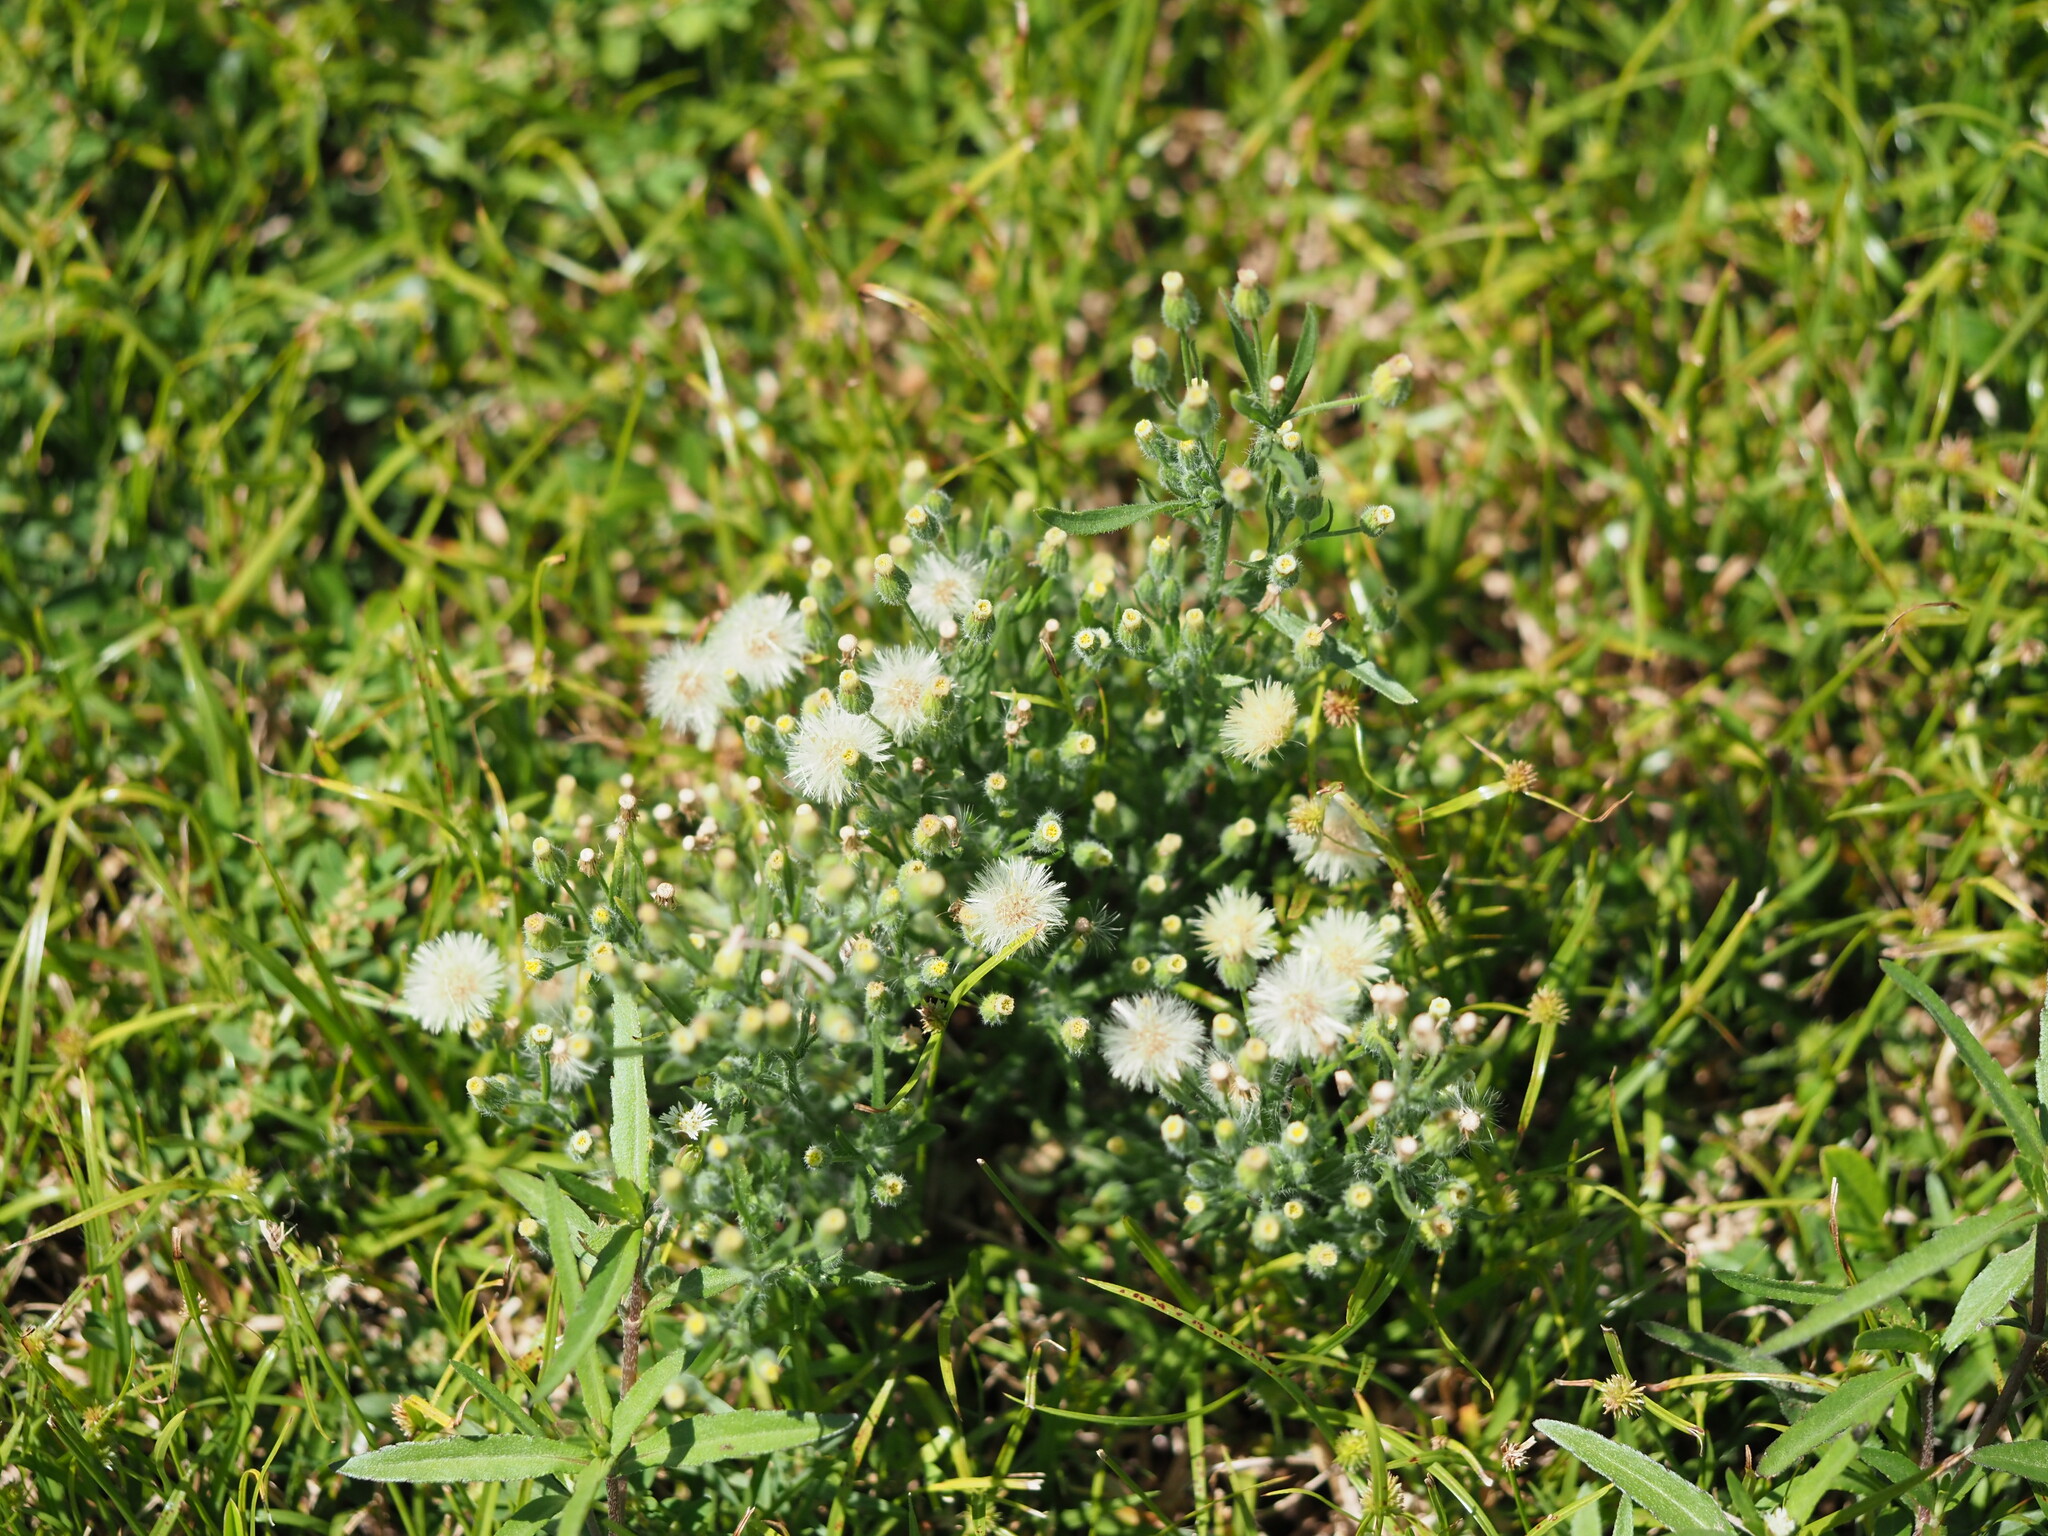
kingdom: Plantae
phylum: Tracheophyta
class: Magnoliopsida
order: Asterales
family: Asteraceae
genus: Erigeron
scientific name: Erigeron bonariensis
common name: Argentine fleabane
